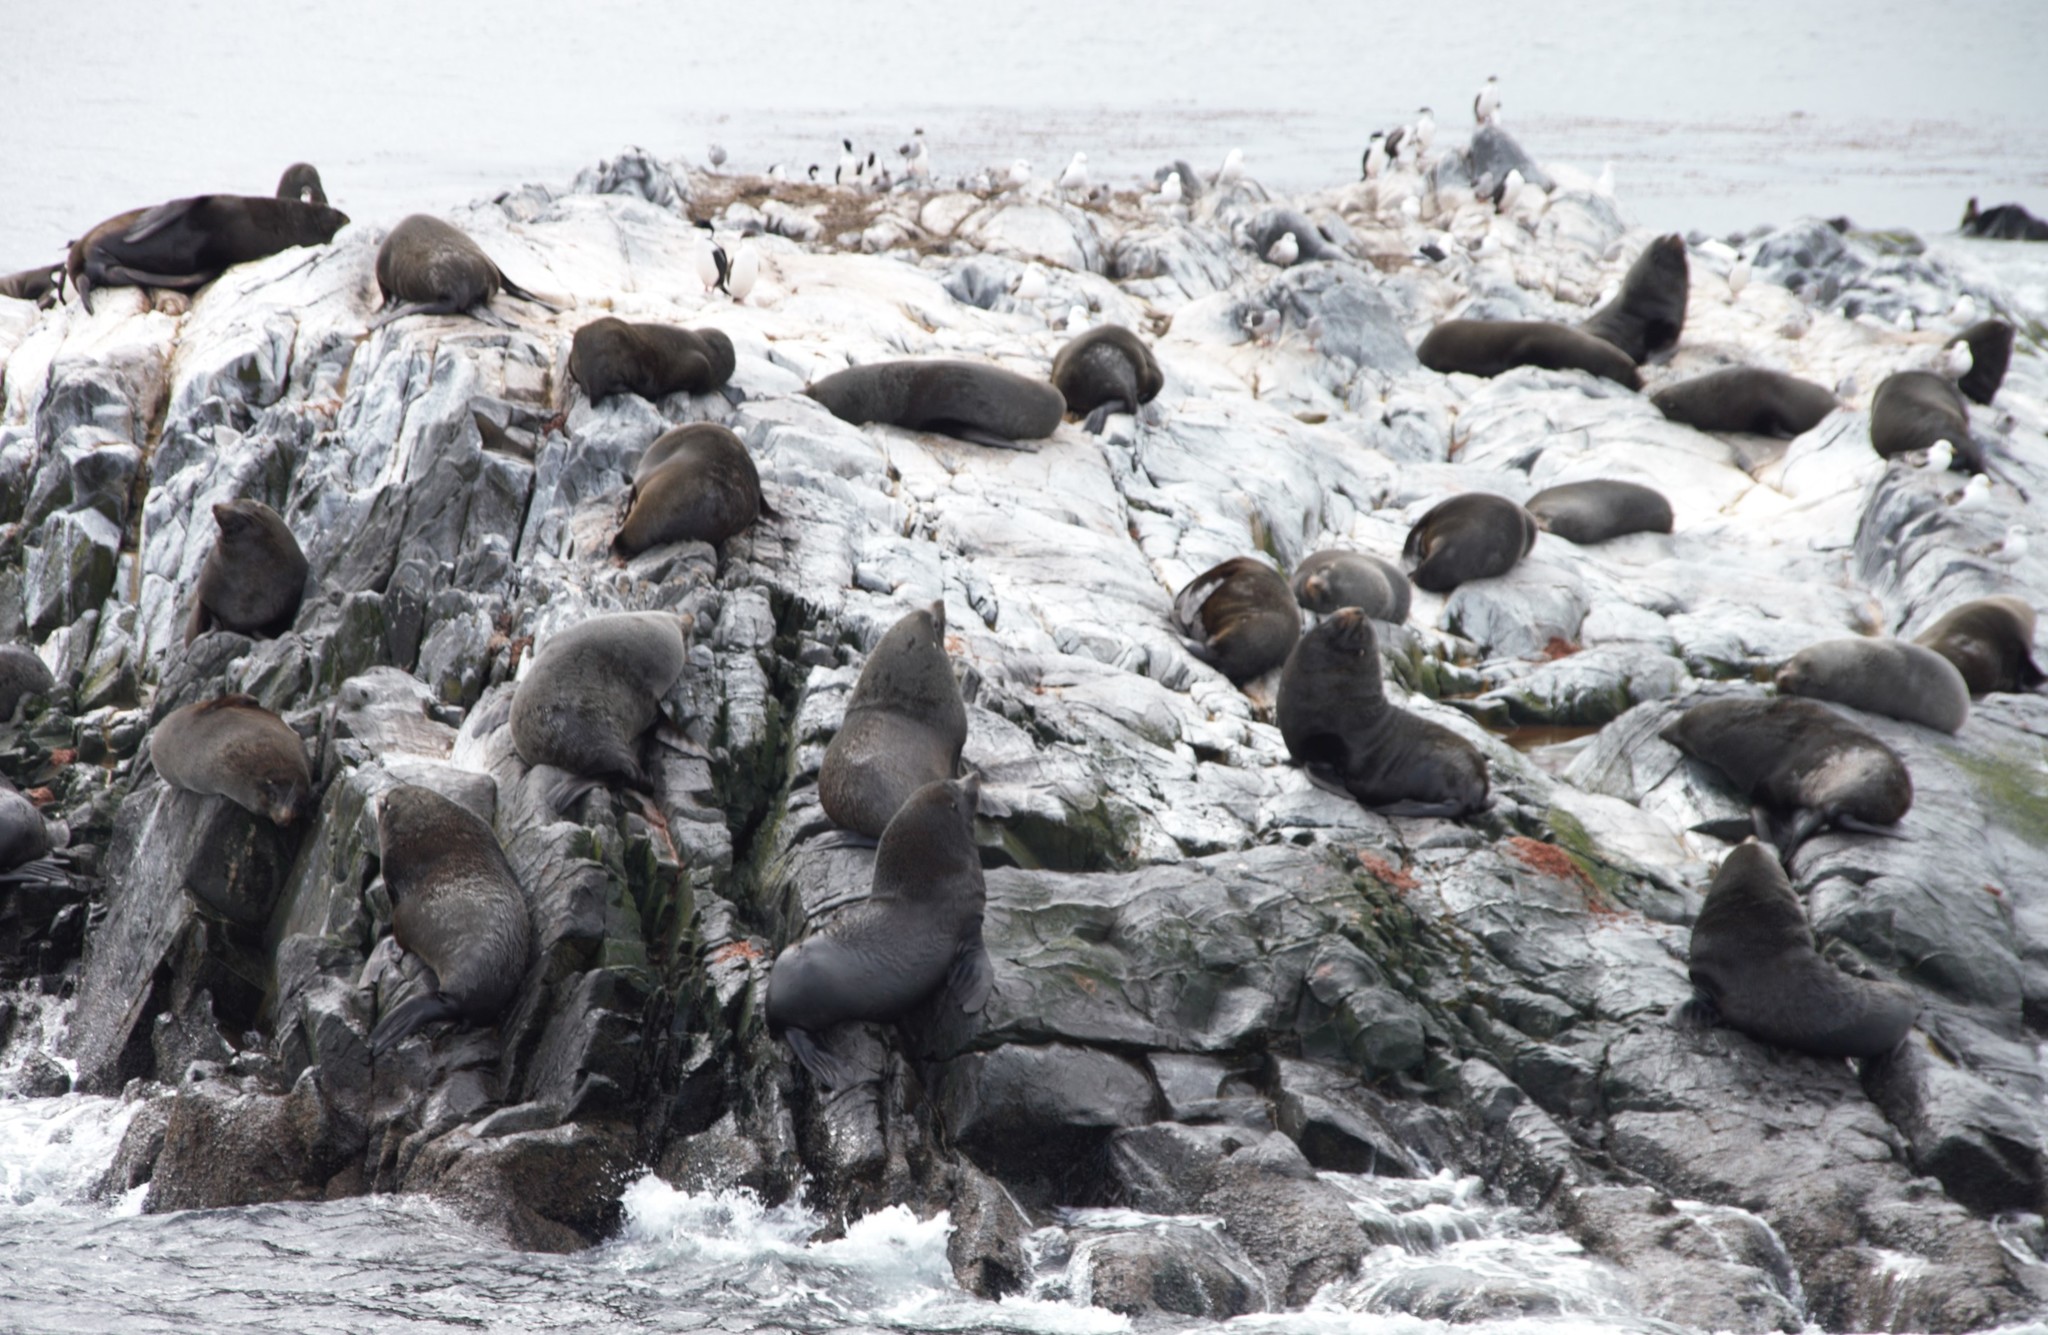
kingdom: Animalia
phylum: Chordata
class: Mammalia
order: Carnivora
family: Otariidae
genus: Arctocephalus
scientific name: Arctocephalus australis
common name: South american fur seal
